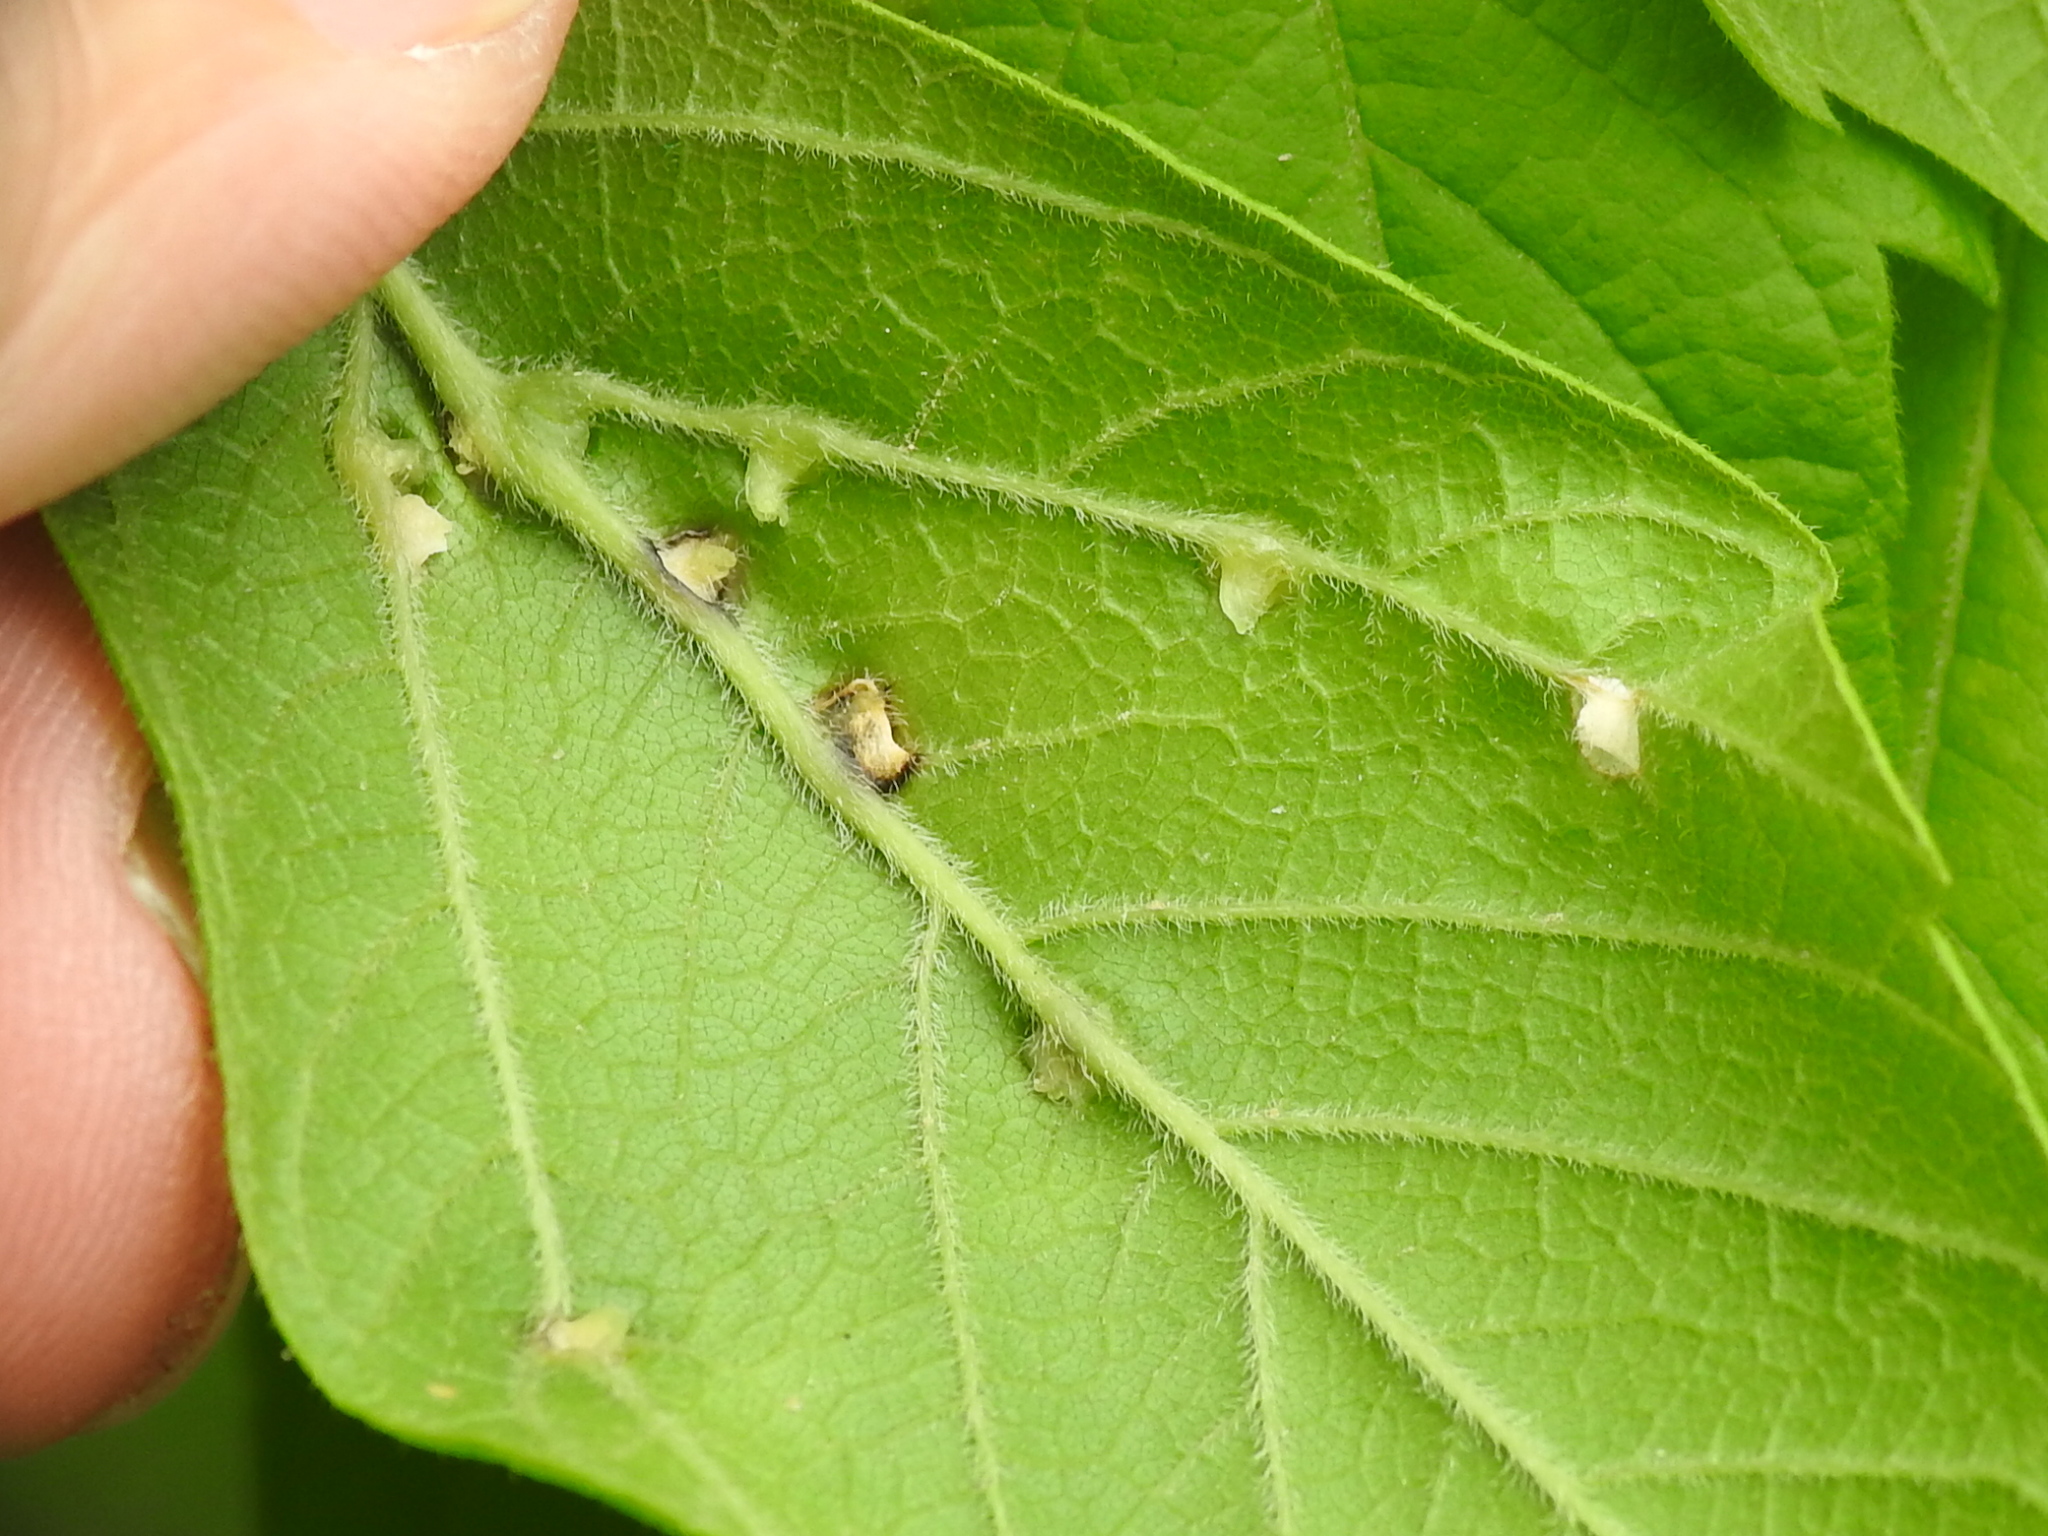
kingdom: Animalia
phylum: Arthropoda
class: Arachnida
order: Trombidiformes
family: Eriophyidae
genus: Aceria
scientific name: Aceria
